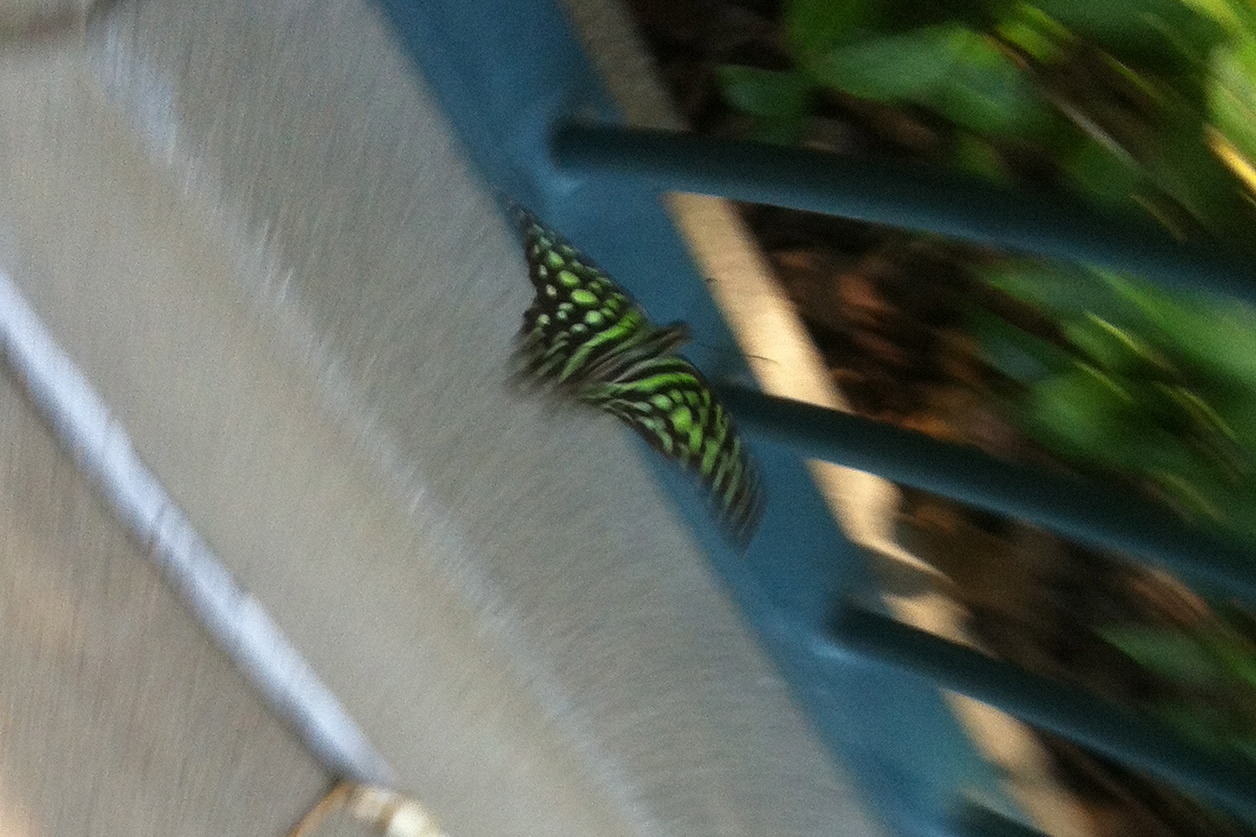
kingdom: Animalia
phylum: Arthropoda
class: Insecta
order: Lepidoptera
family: Papilionidae
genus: Graphium
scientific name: Graphium agamemnon
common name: Tailed jay
